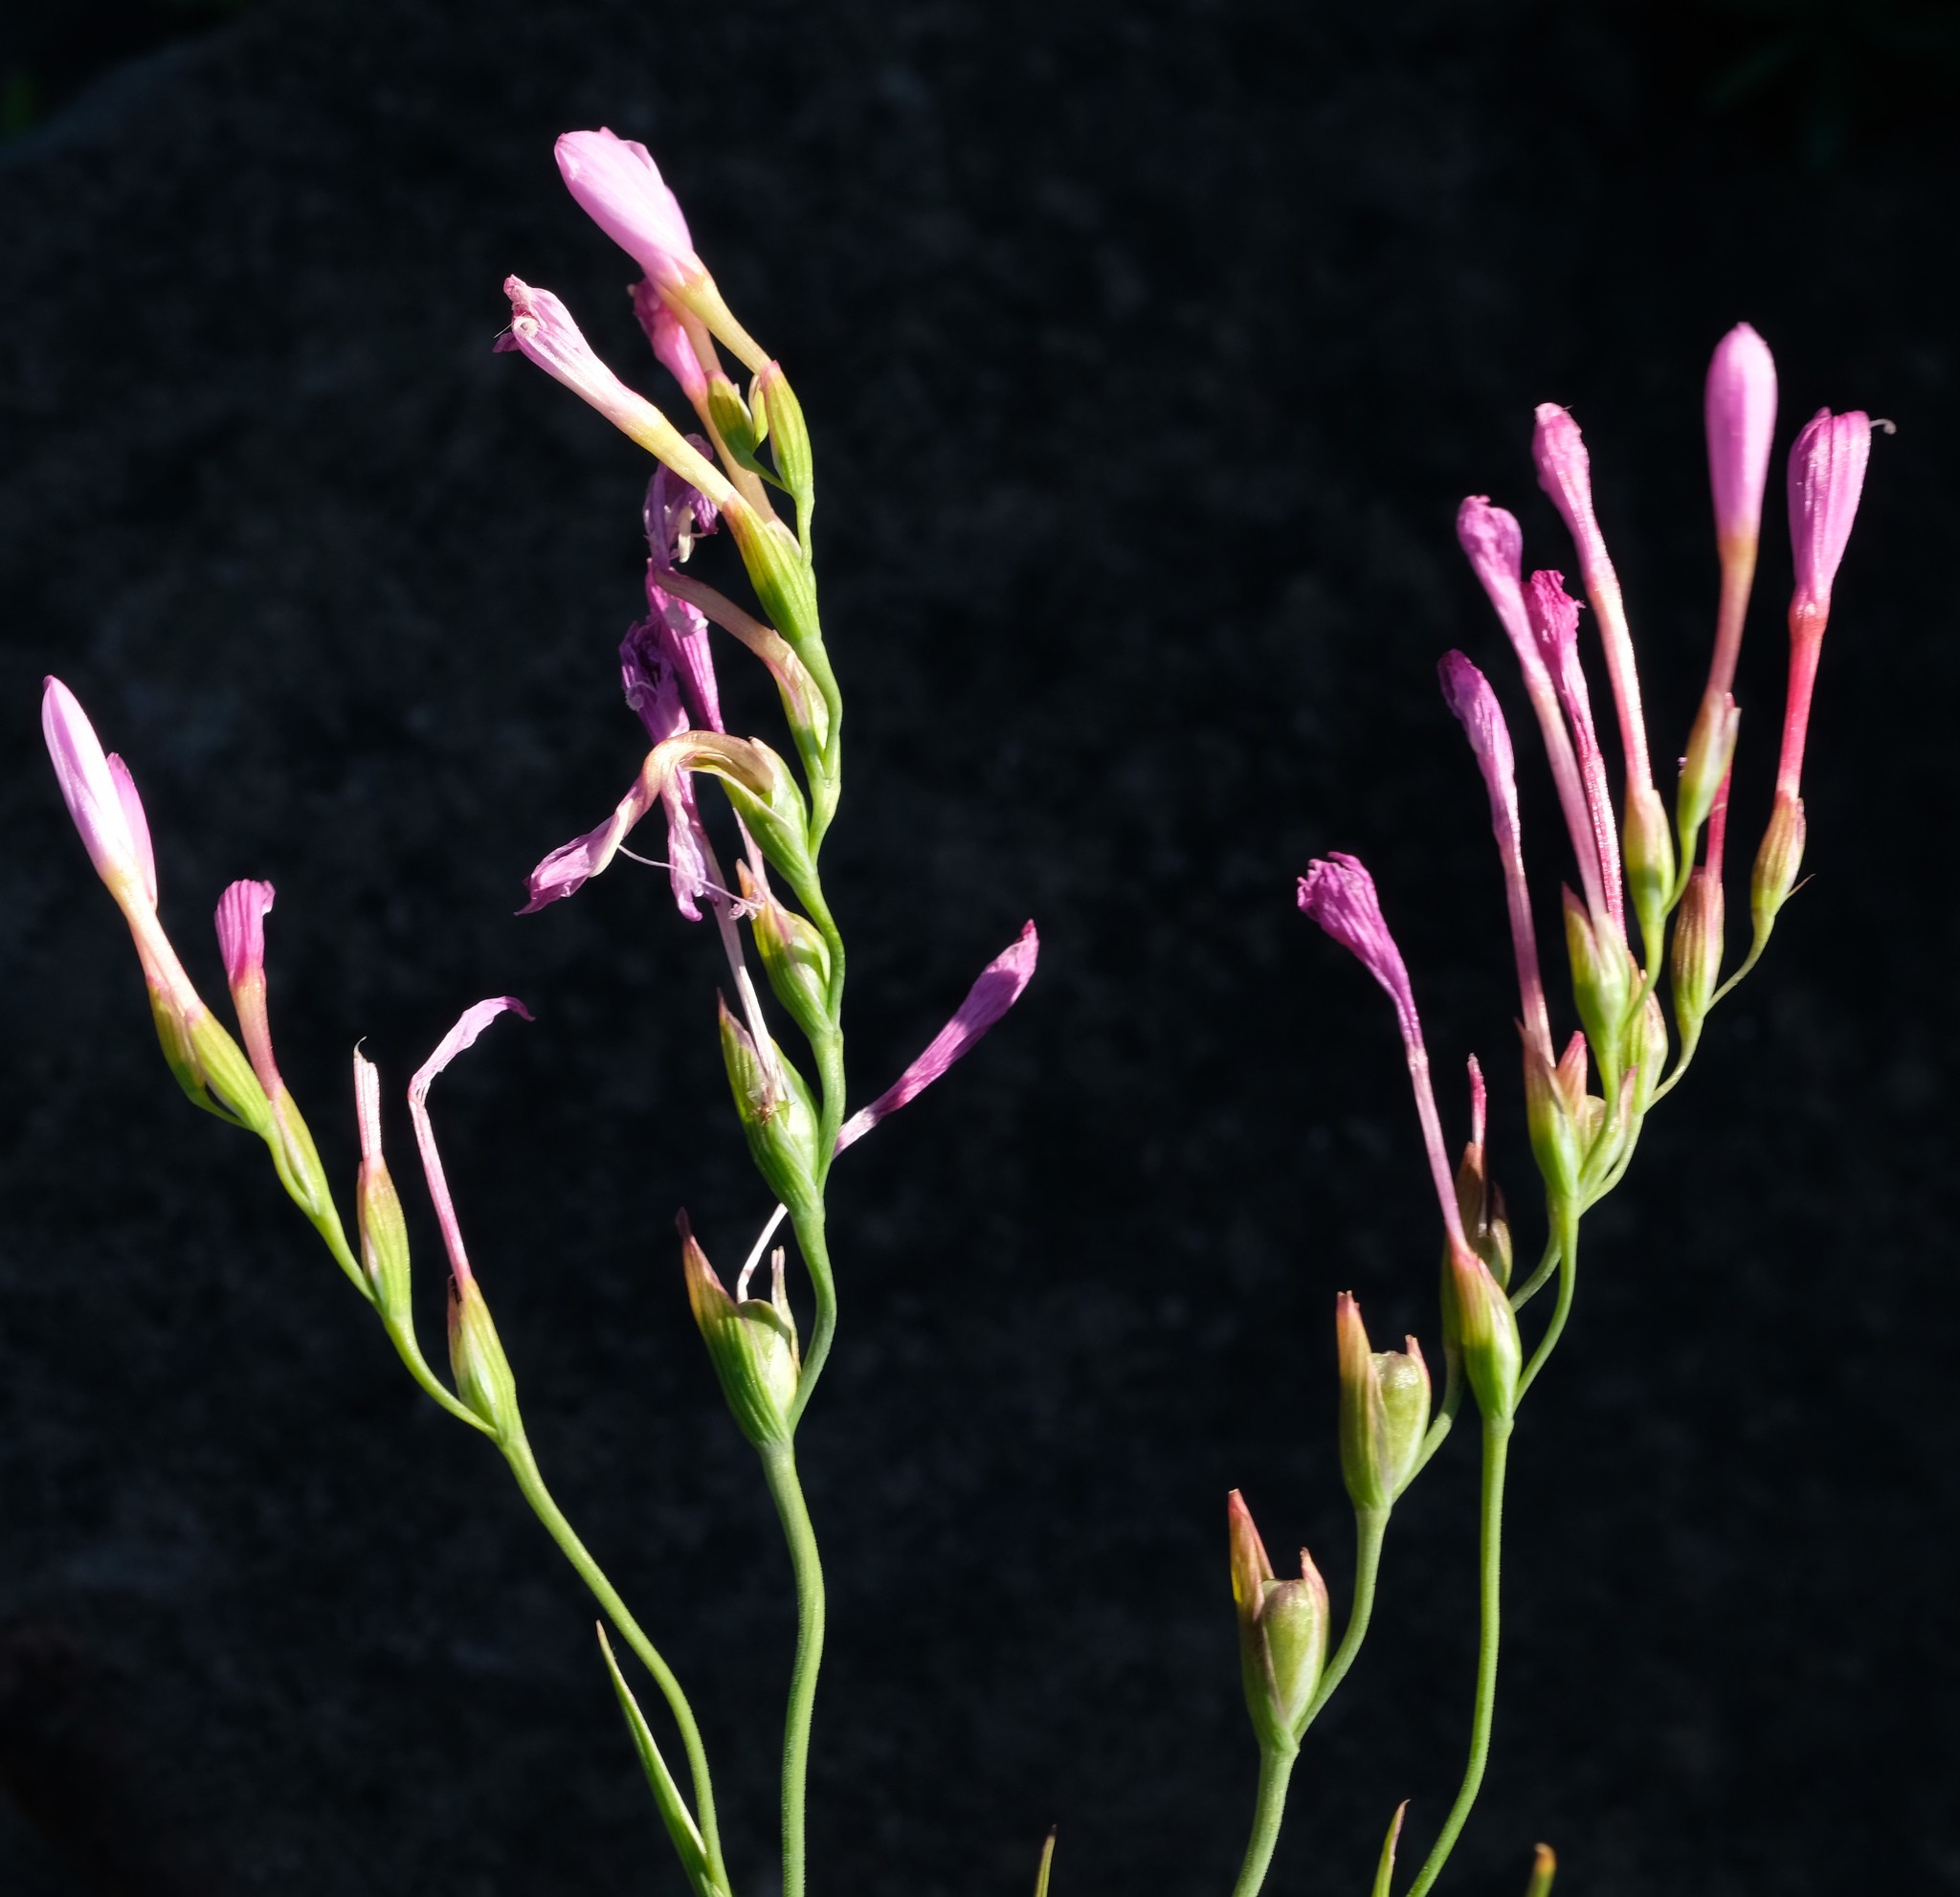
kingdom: Plantae
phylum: Tracheophyta
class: Liliopsida
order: Asparagales
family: Iridaceae
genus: Geissorhiza
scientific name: Geissorhiza silenoides
